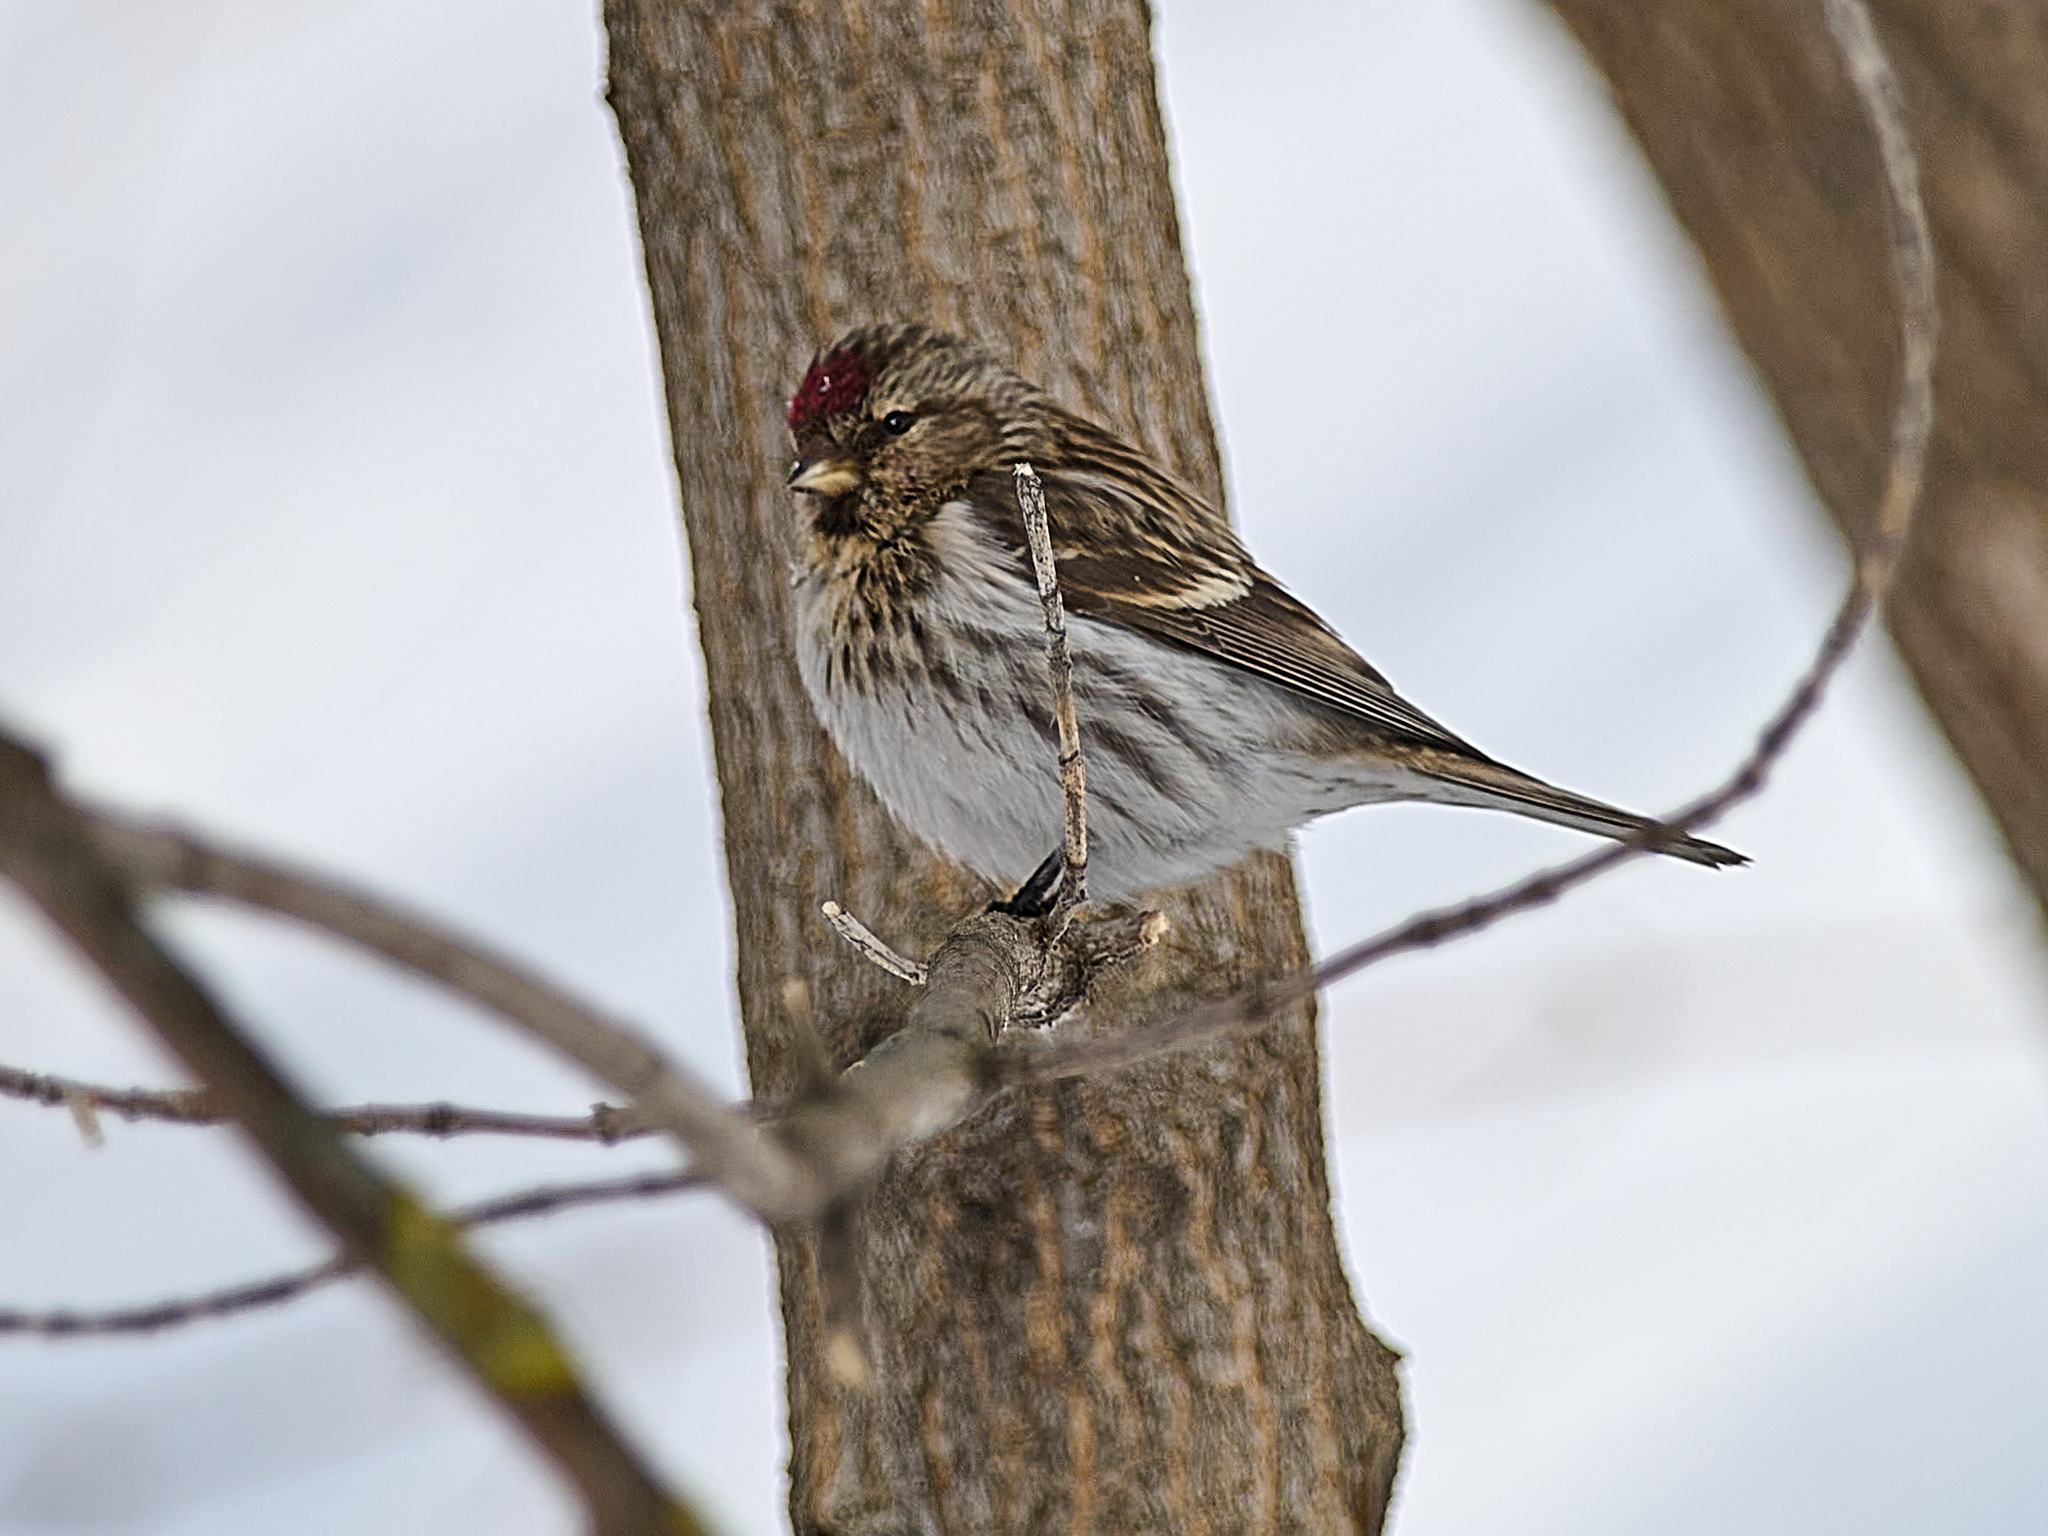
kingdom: Animalia
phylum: Chordata
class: Aves
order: Passeriformes
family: Fringillidae
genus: Acanthis
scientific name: Acanthis flammea
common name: Common redpoll
